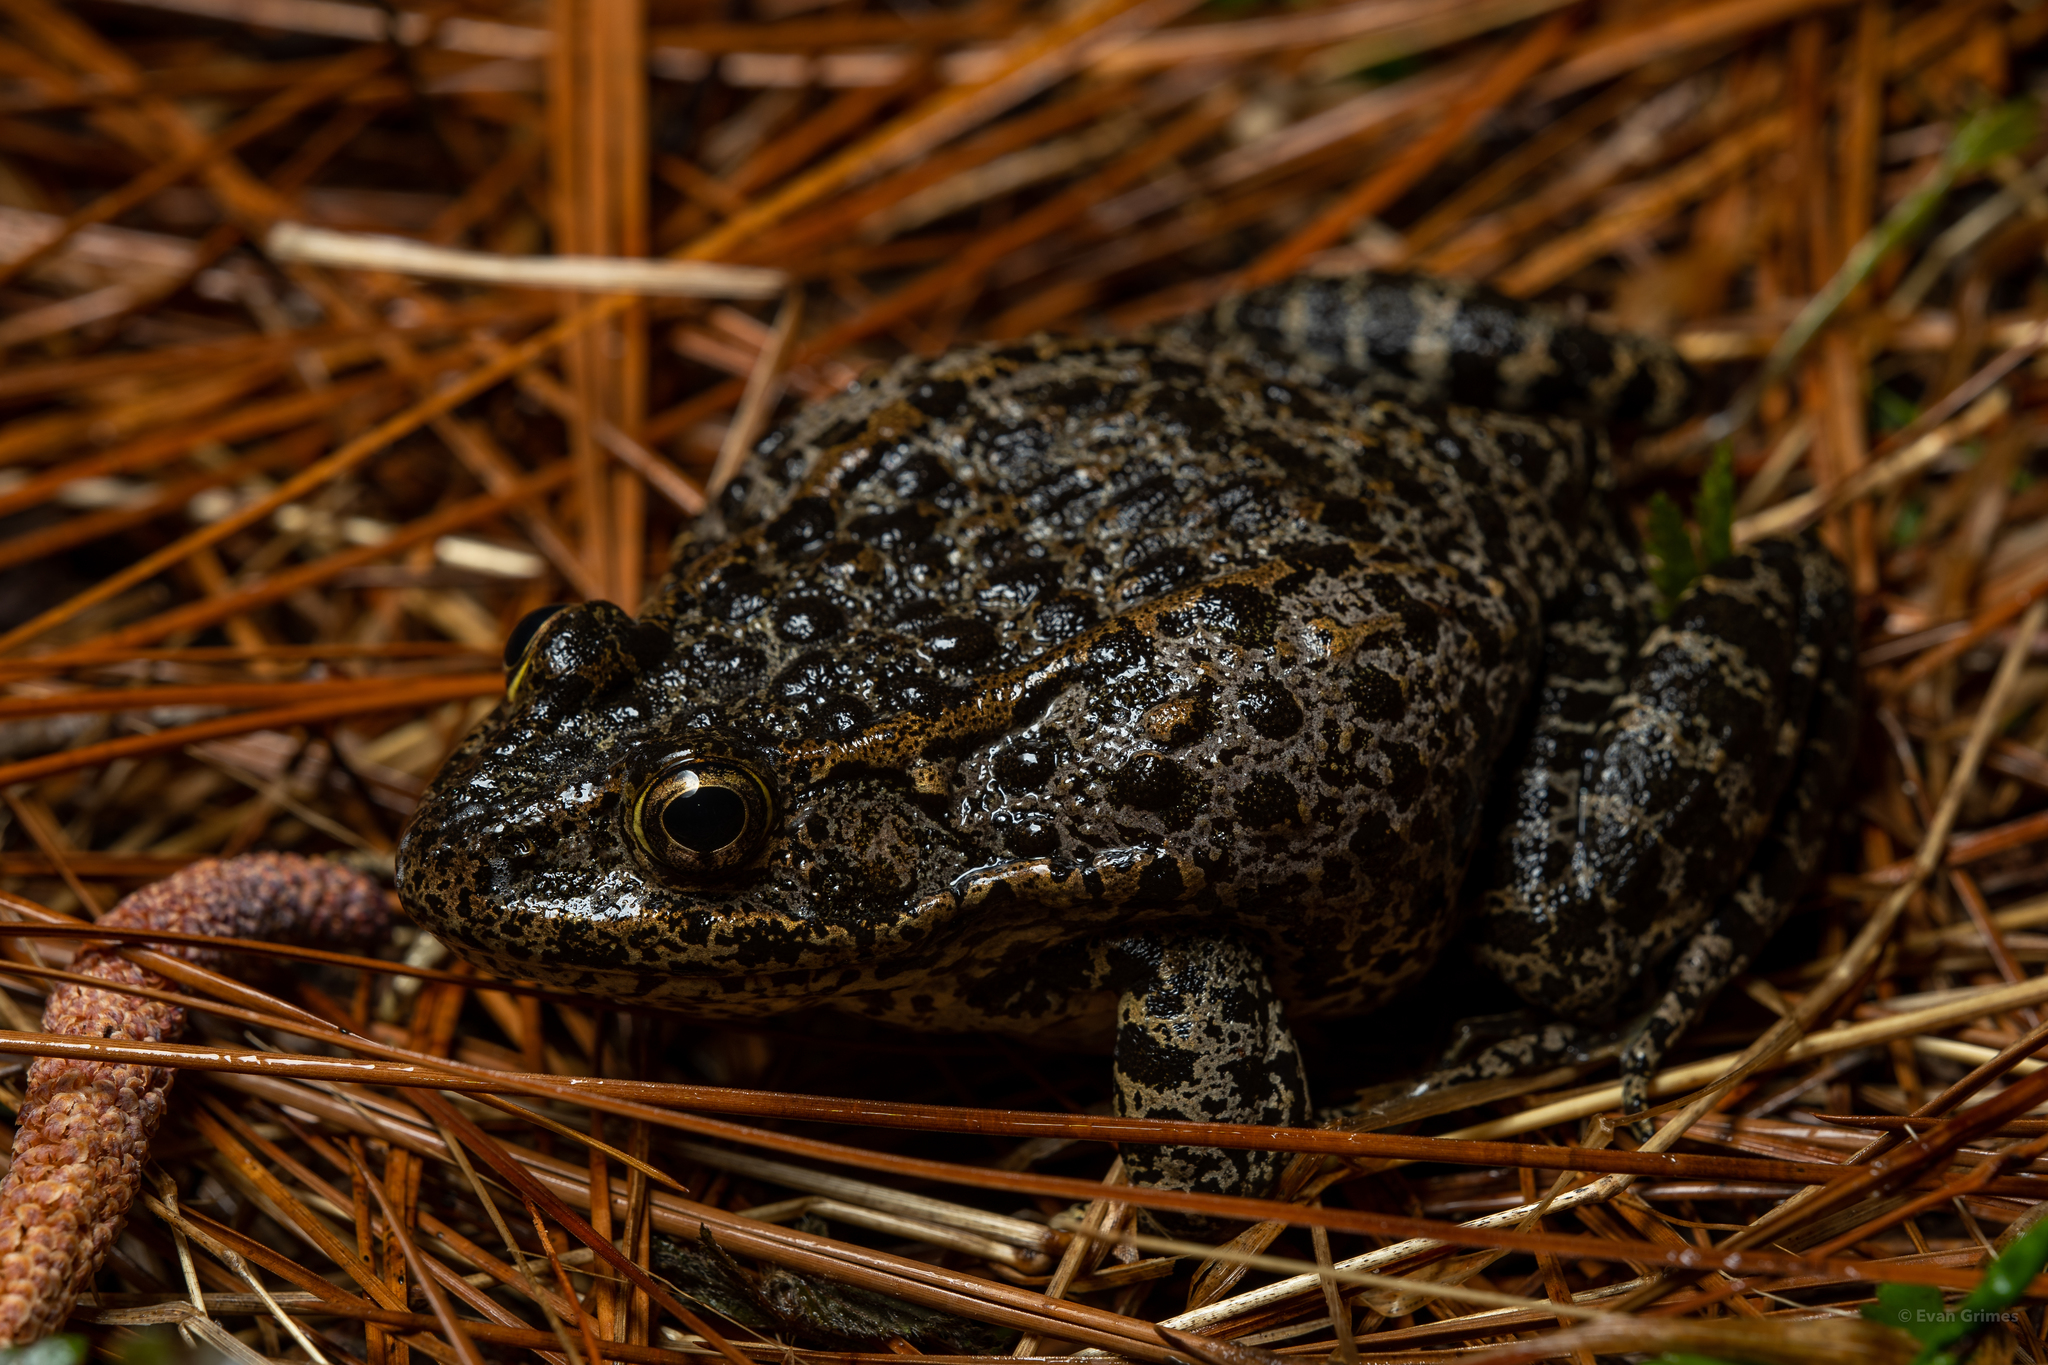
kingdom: Animalia
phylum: Chordata
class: Amphibia
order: Anura
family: Ranidae
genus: Lithobates
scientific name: Lithobates sevosus
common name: Dusky gopher frog
